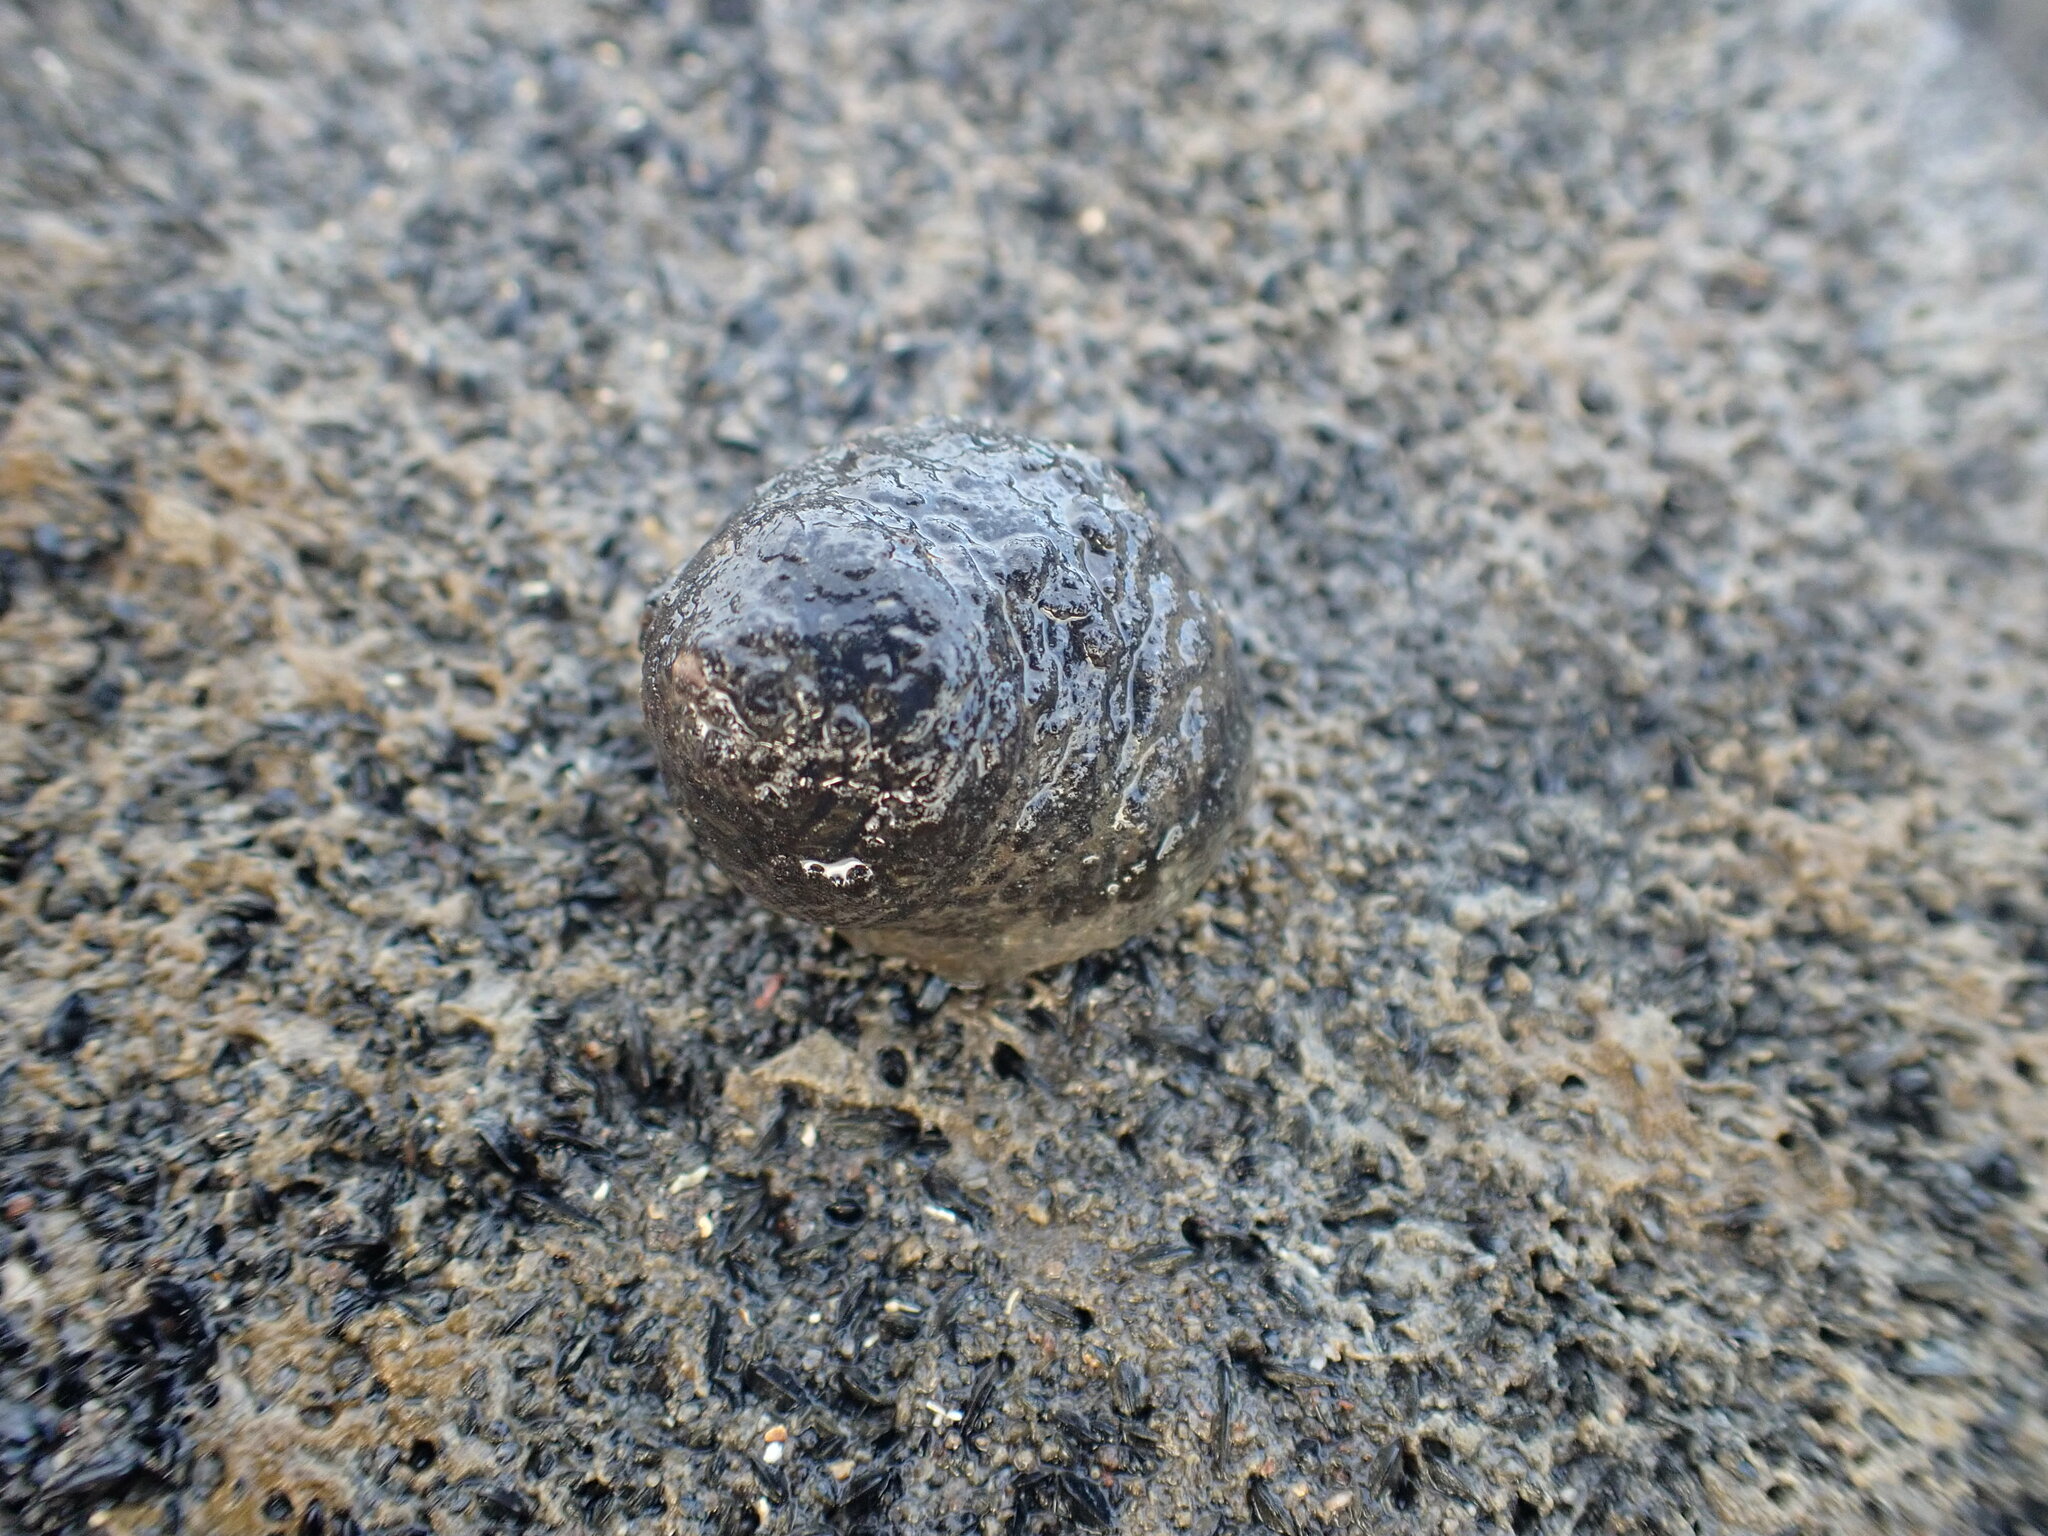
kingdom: Animalia
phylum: Mollusca
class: Gastropoda
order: Trochida
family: Trochidae
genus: Diloma
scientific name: Diloma aethiops
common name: Scorched monodont
